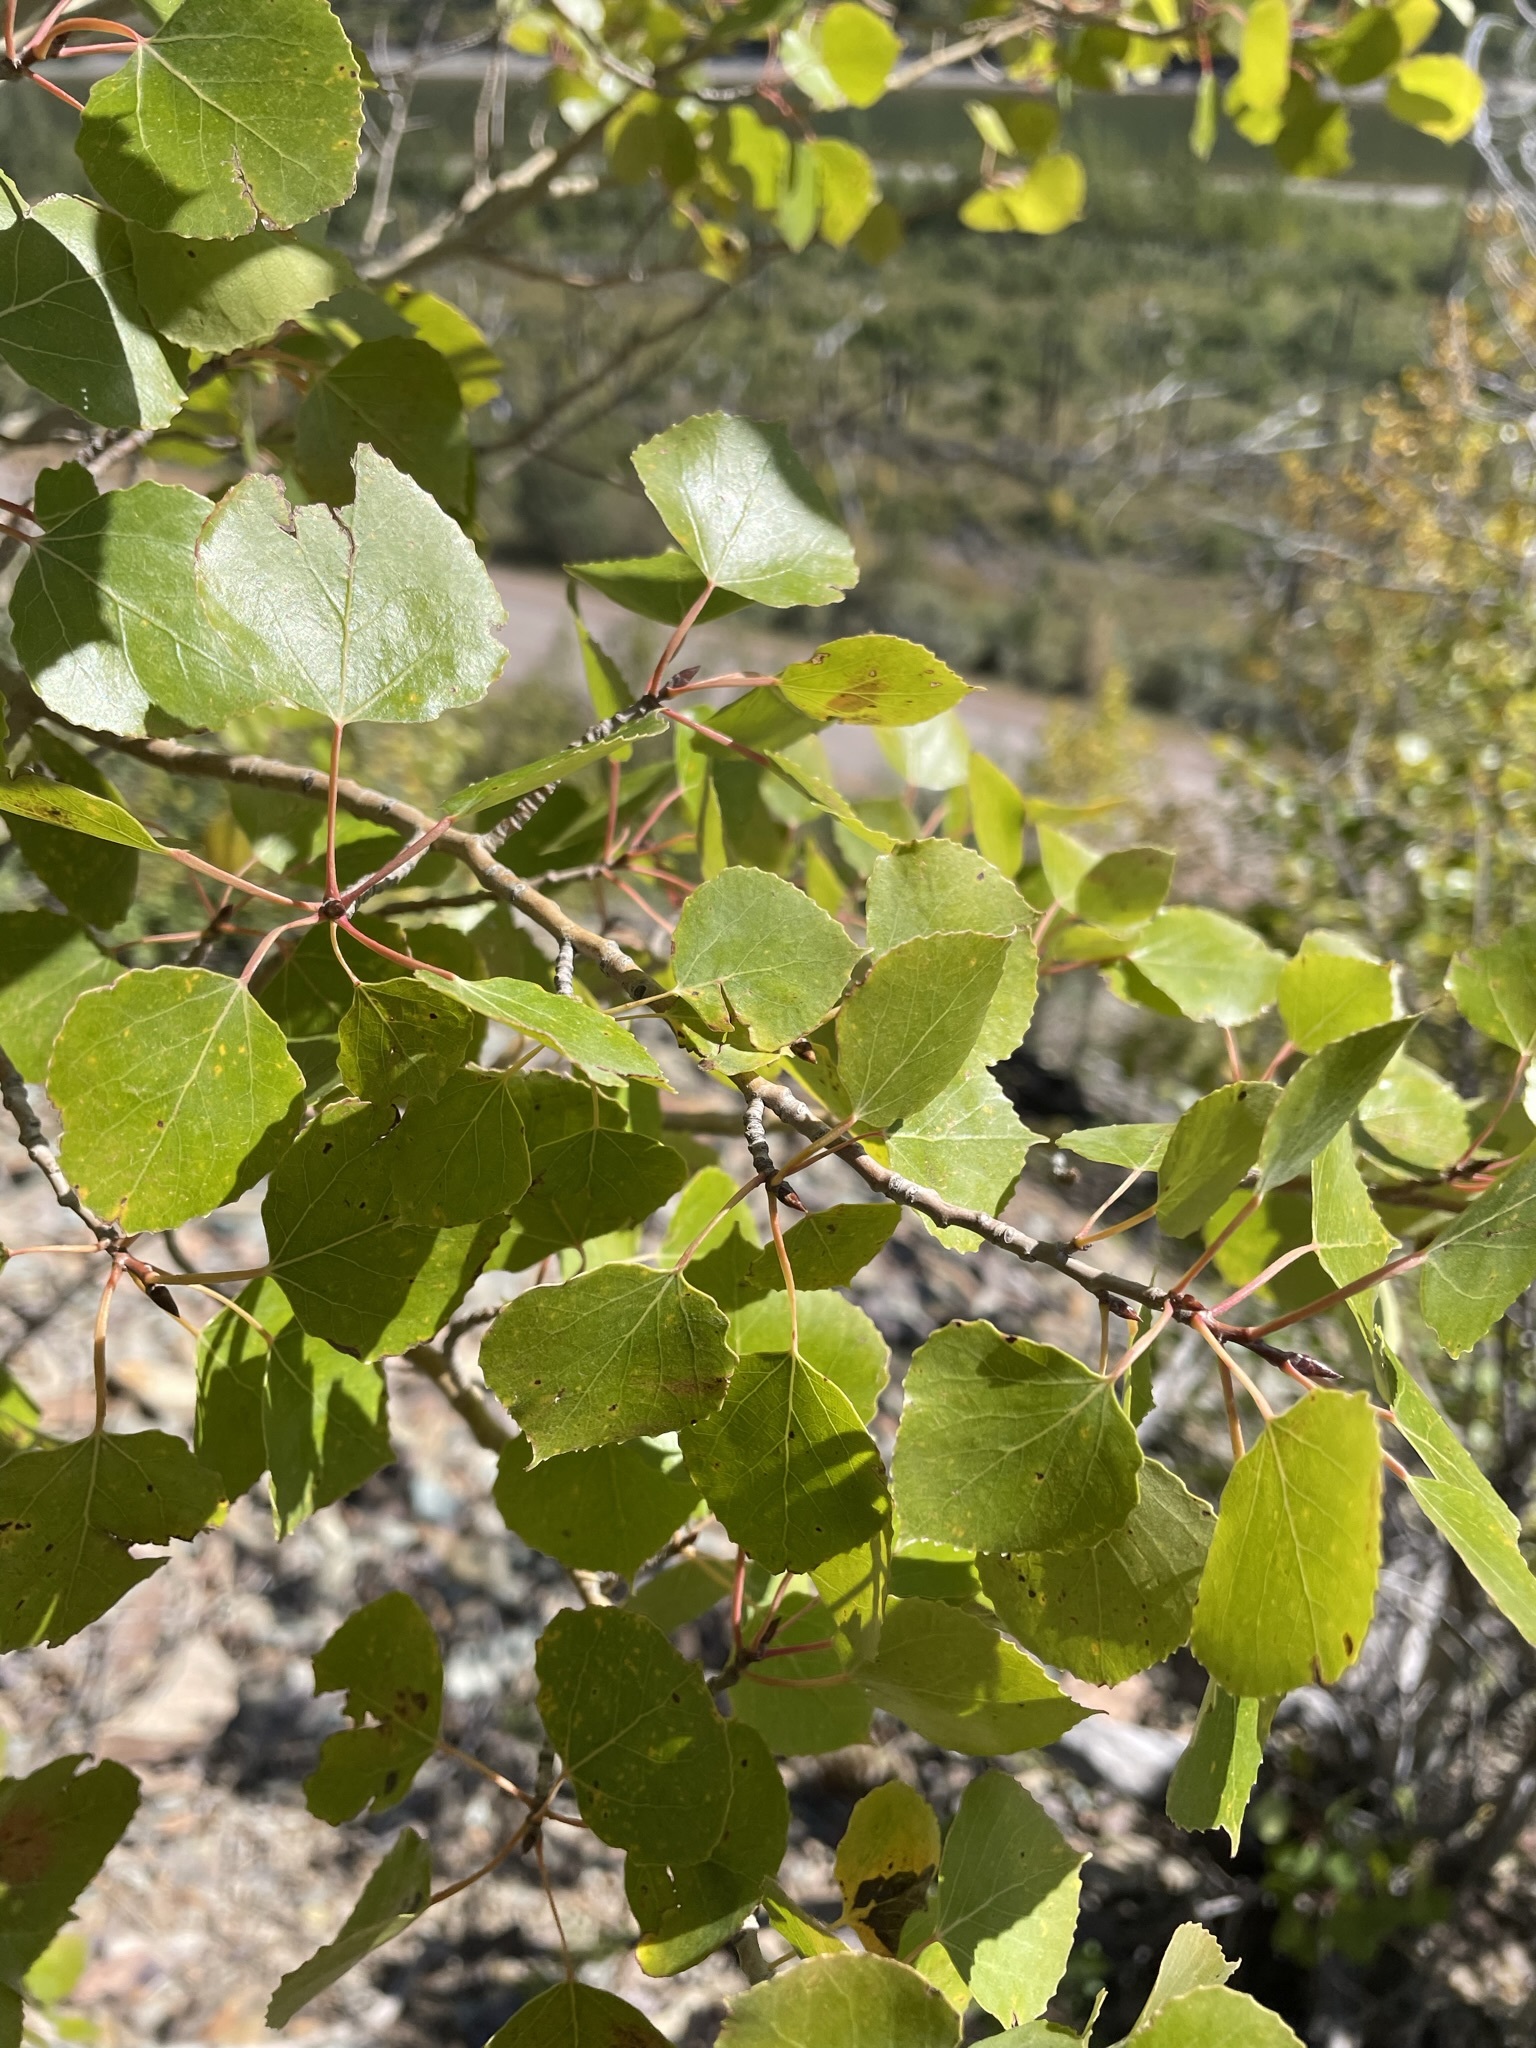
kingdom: Plantae
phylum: Tracheophyta
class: Magnoliopsida
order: Malpighiales
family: Salicaceae
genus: Populus
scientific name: Populus tremuloides
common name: Quaking aspen
